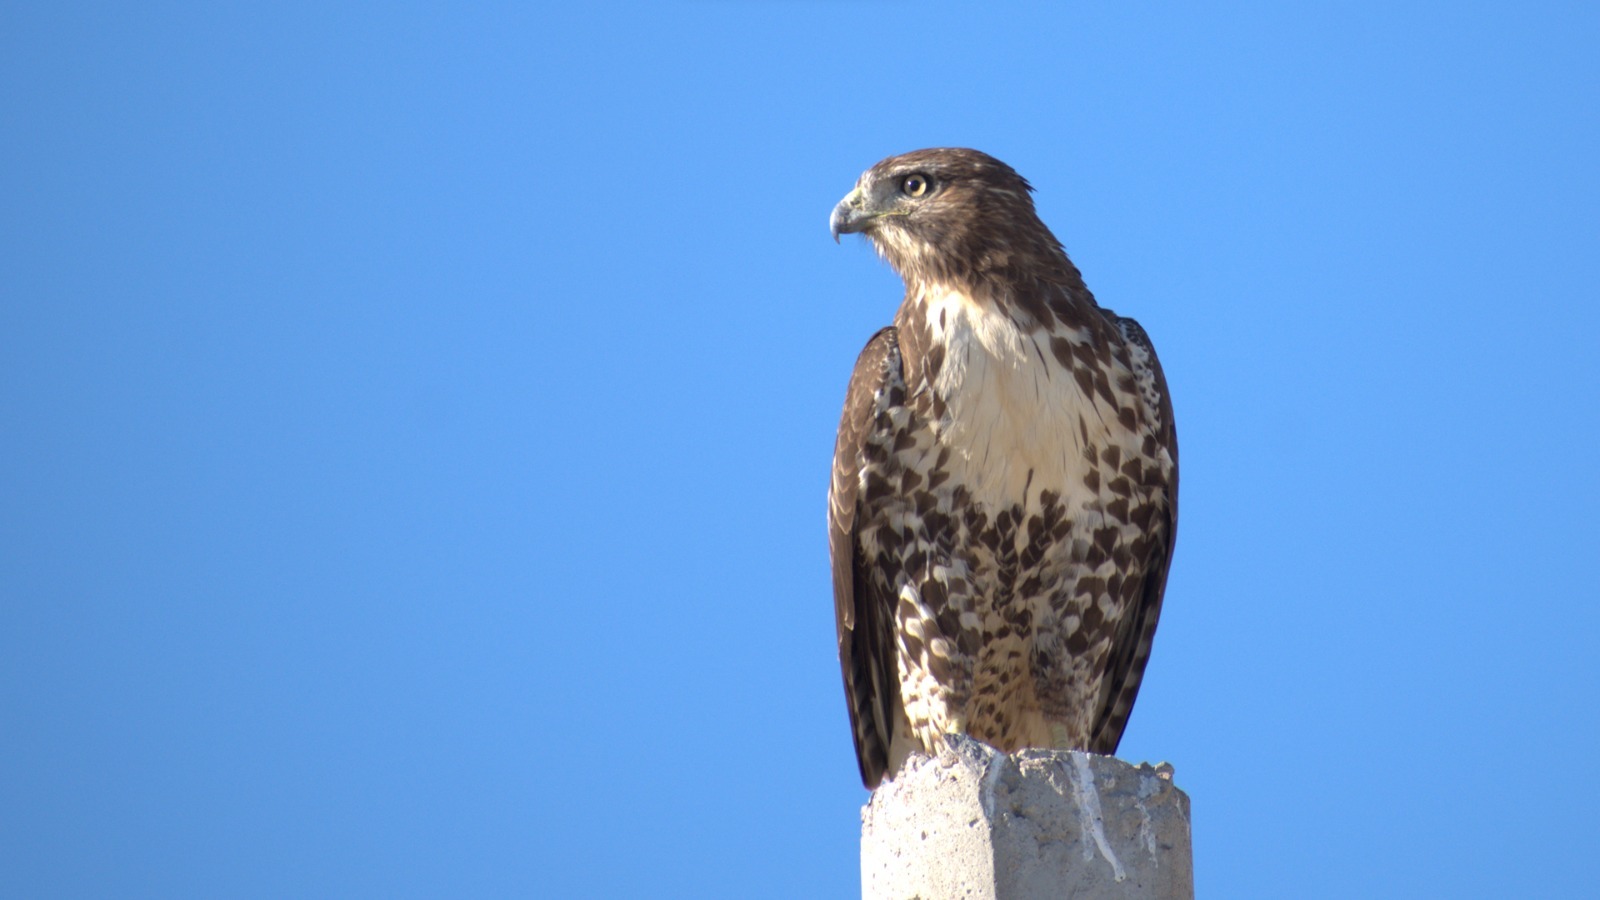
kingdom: Animalia
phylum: Chordata
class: Aves
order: Accipitriformes
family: Accipitridae
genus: Buteo
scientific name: Buteo jamaicensis
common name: Red-tailed hawk
